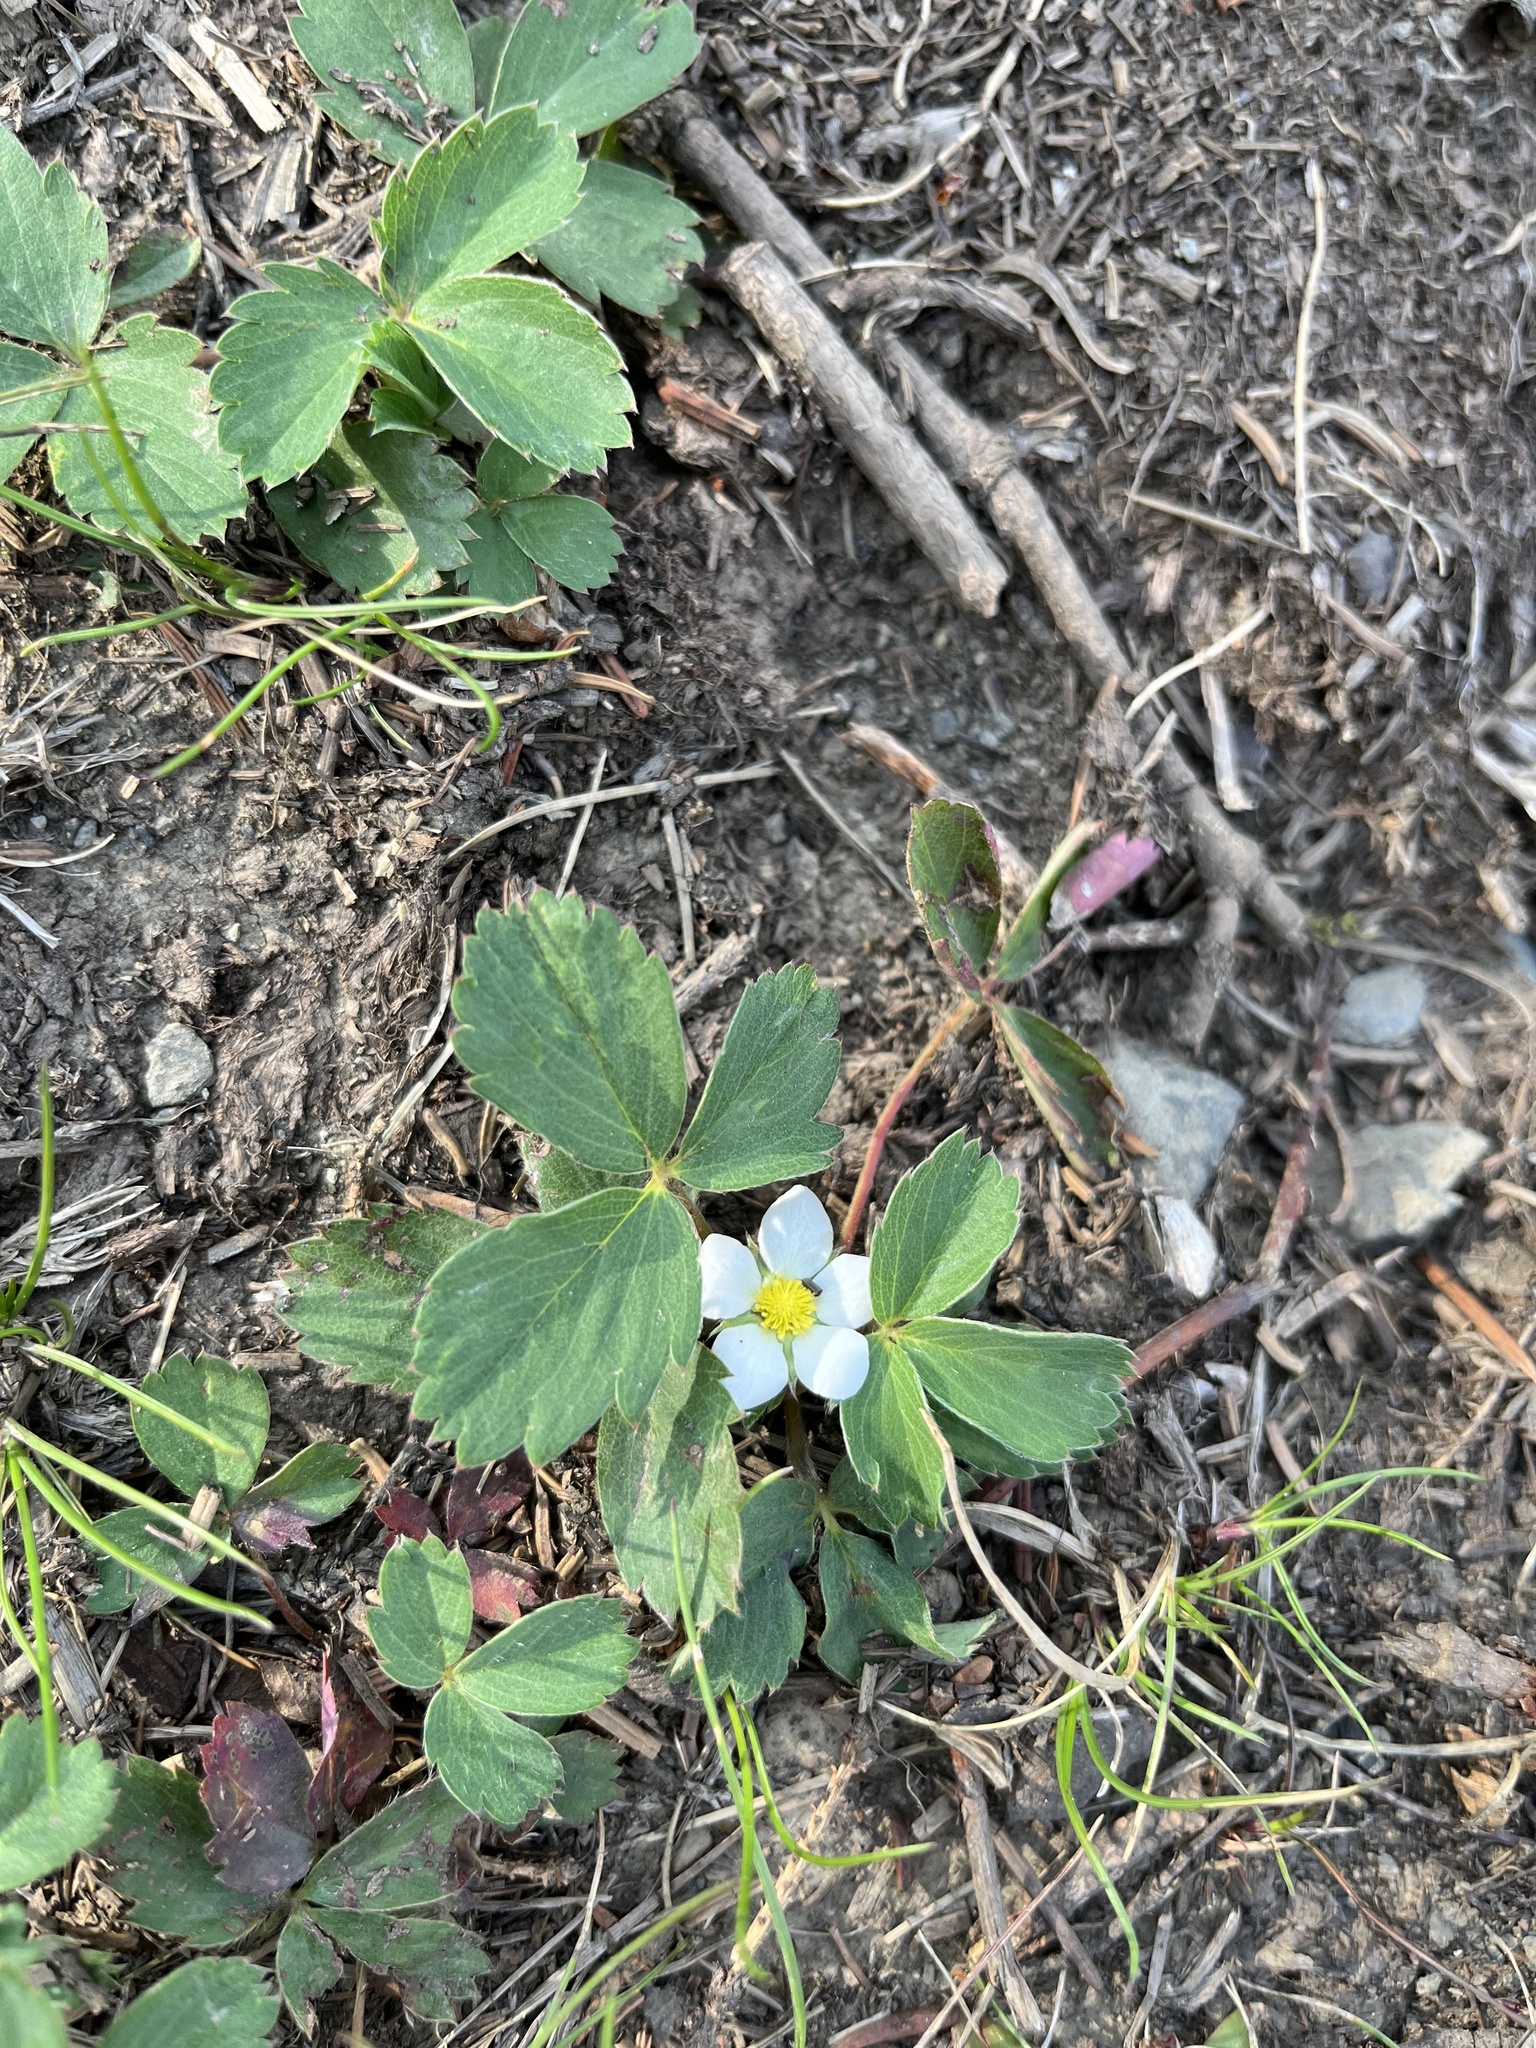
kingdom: Plantae
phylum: Tracheophyta
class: Magnoliopsida
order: Rosales
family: Rosaceae
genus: Fragaria
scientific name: Fragaria virginiana
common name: Thickleaved wild strawberry
